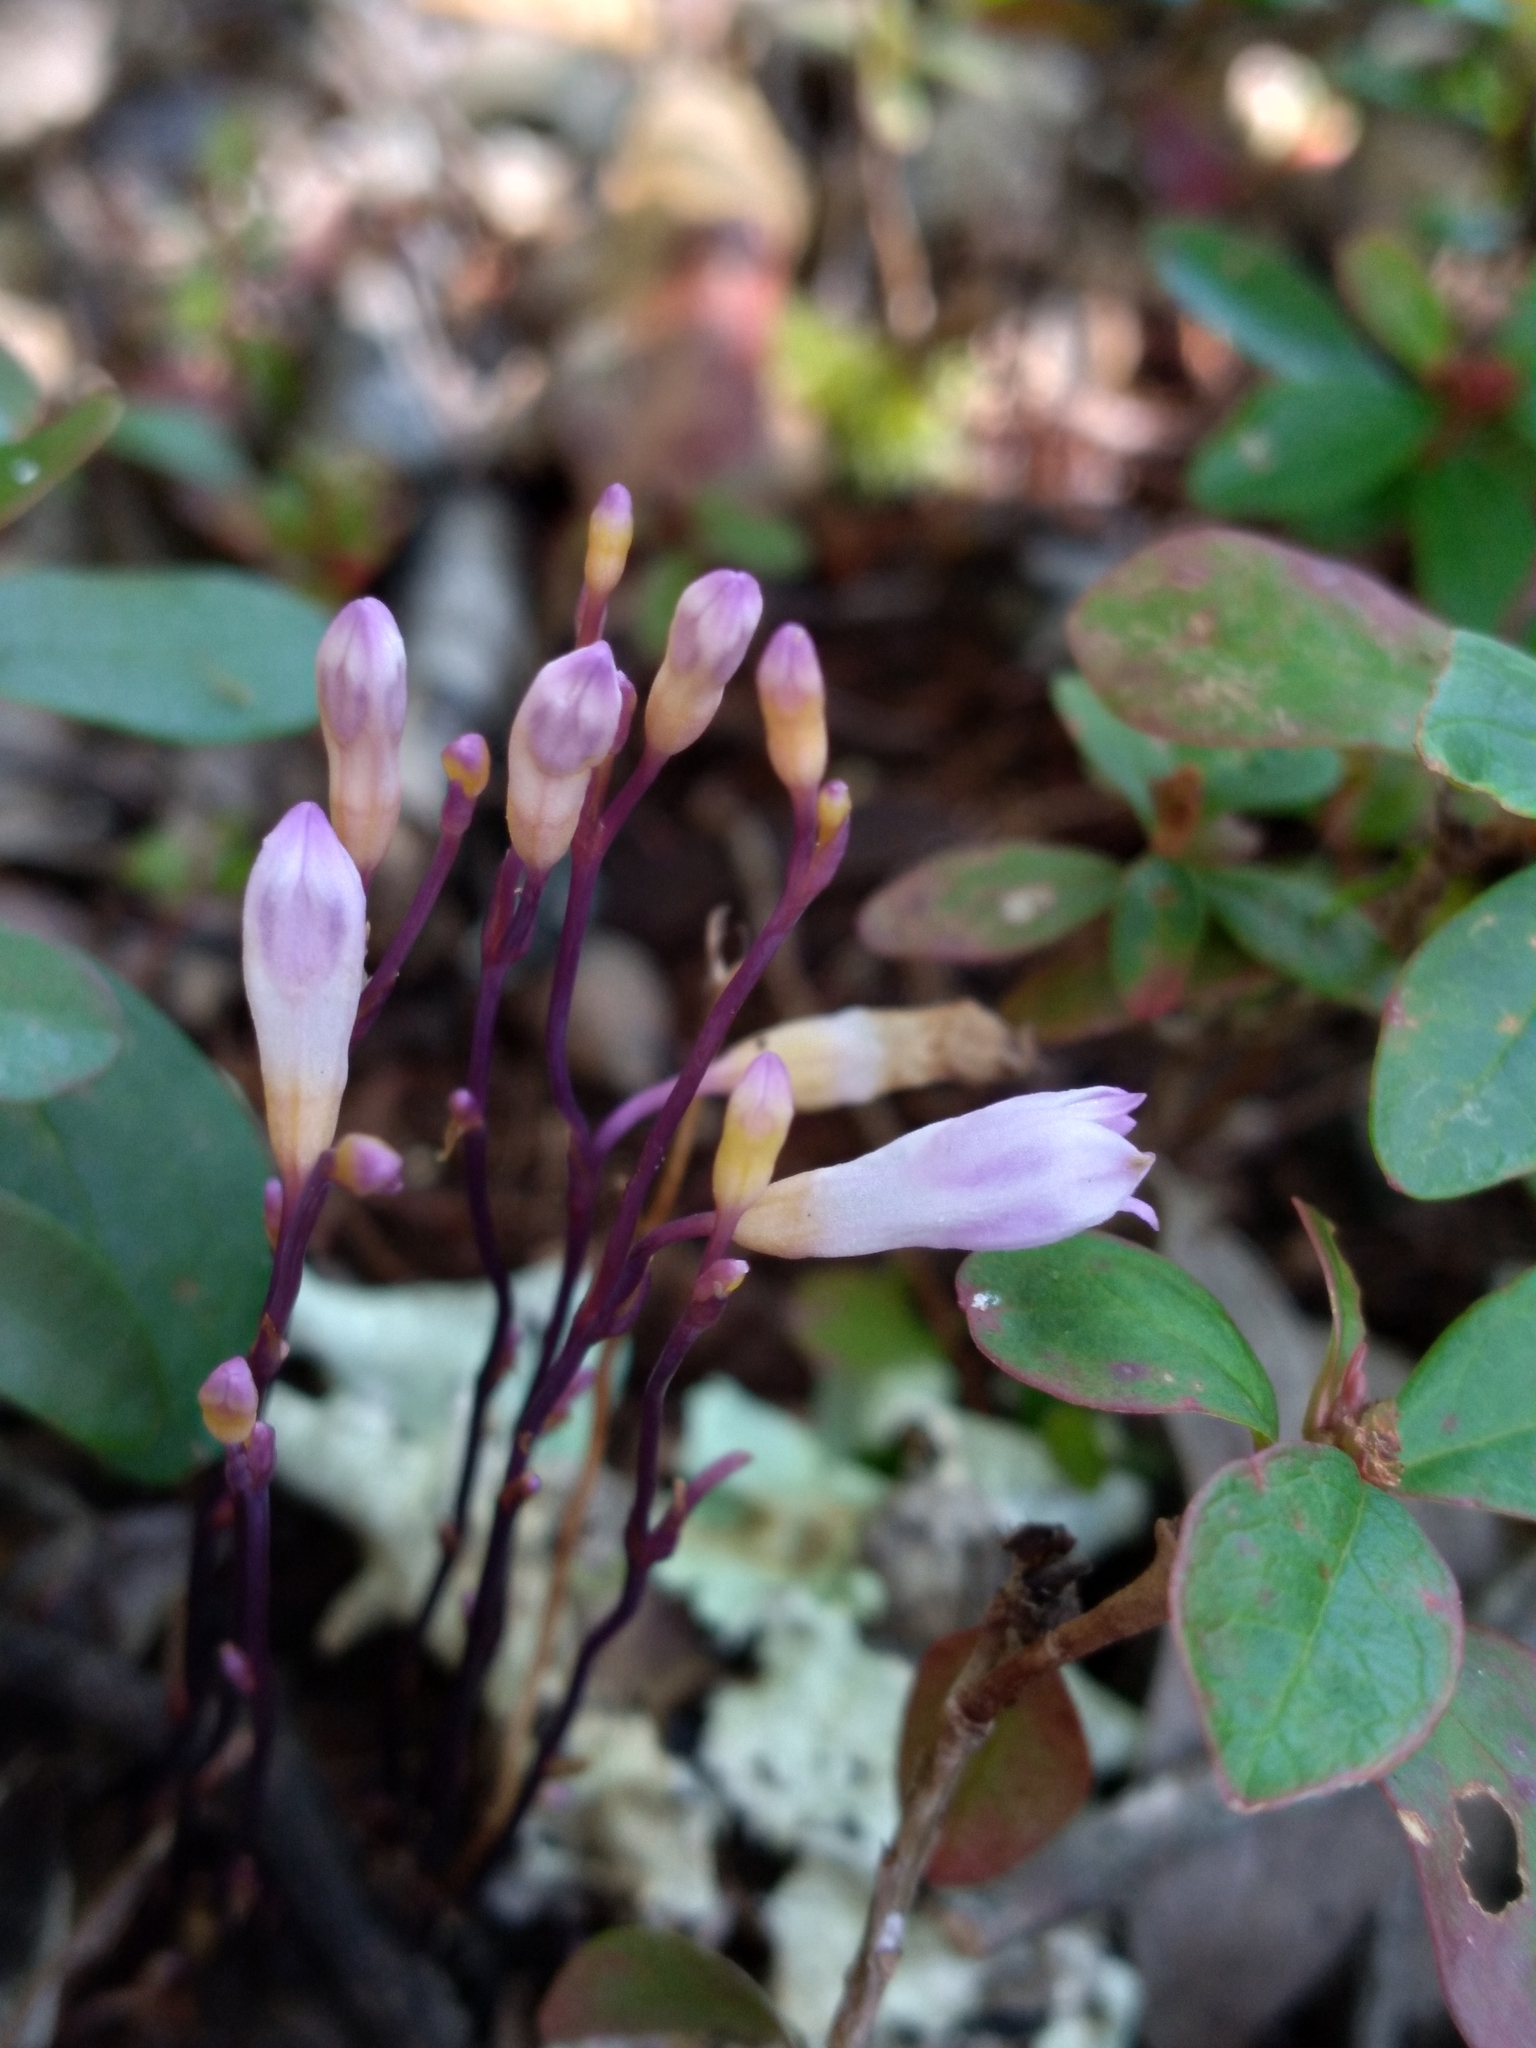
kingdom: Plantae
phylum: Tracheophyta
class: Liliopsida
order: Dioscoreales
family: Burmanniaceae
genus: Apteria
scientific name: Apteria aphylla
